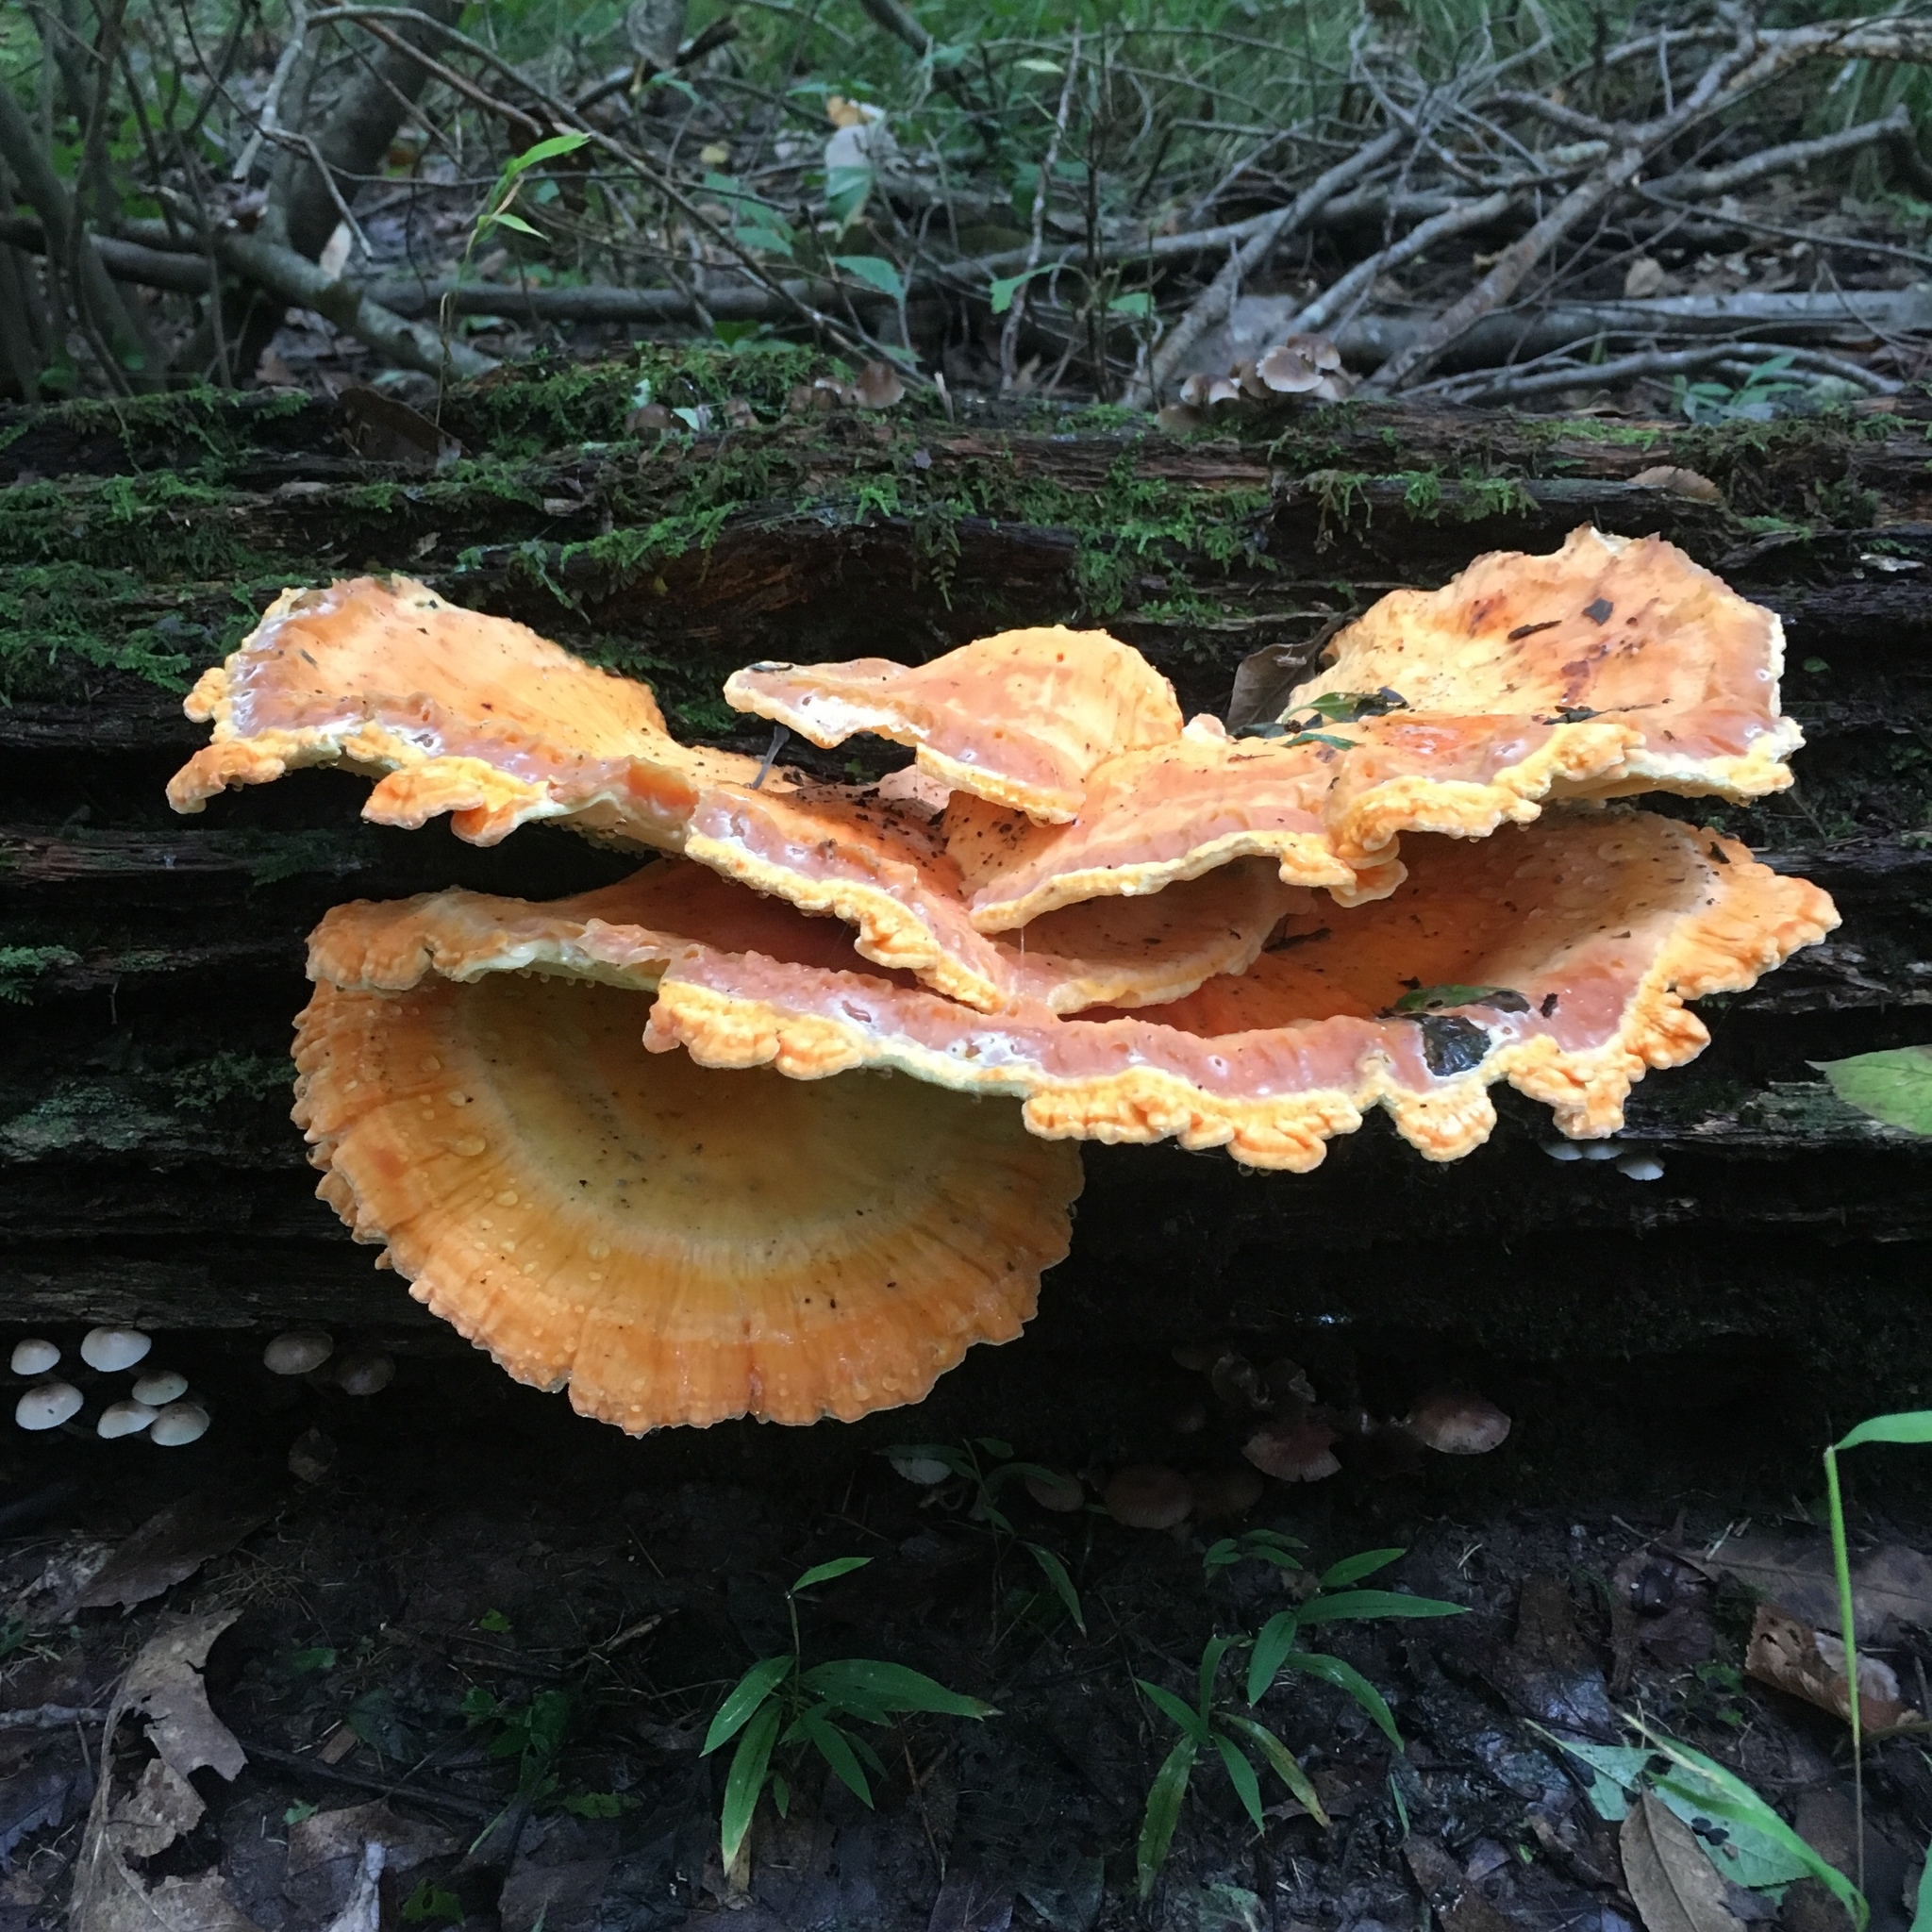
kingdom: Fungi
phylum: Basidiomycota
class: Agaricomycetes
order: Polyporales
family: Laetiporaceae
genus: Laetiporus
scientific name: Laetiporus sulphureus
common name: Chicken of the woods
